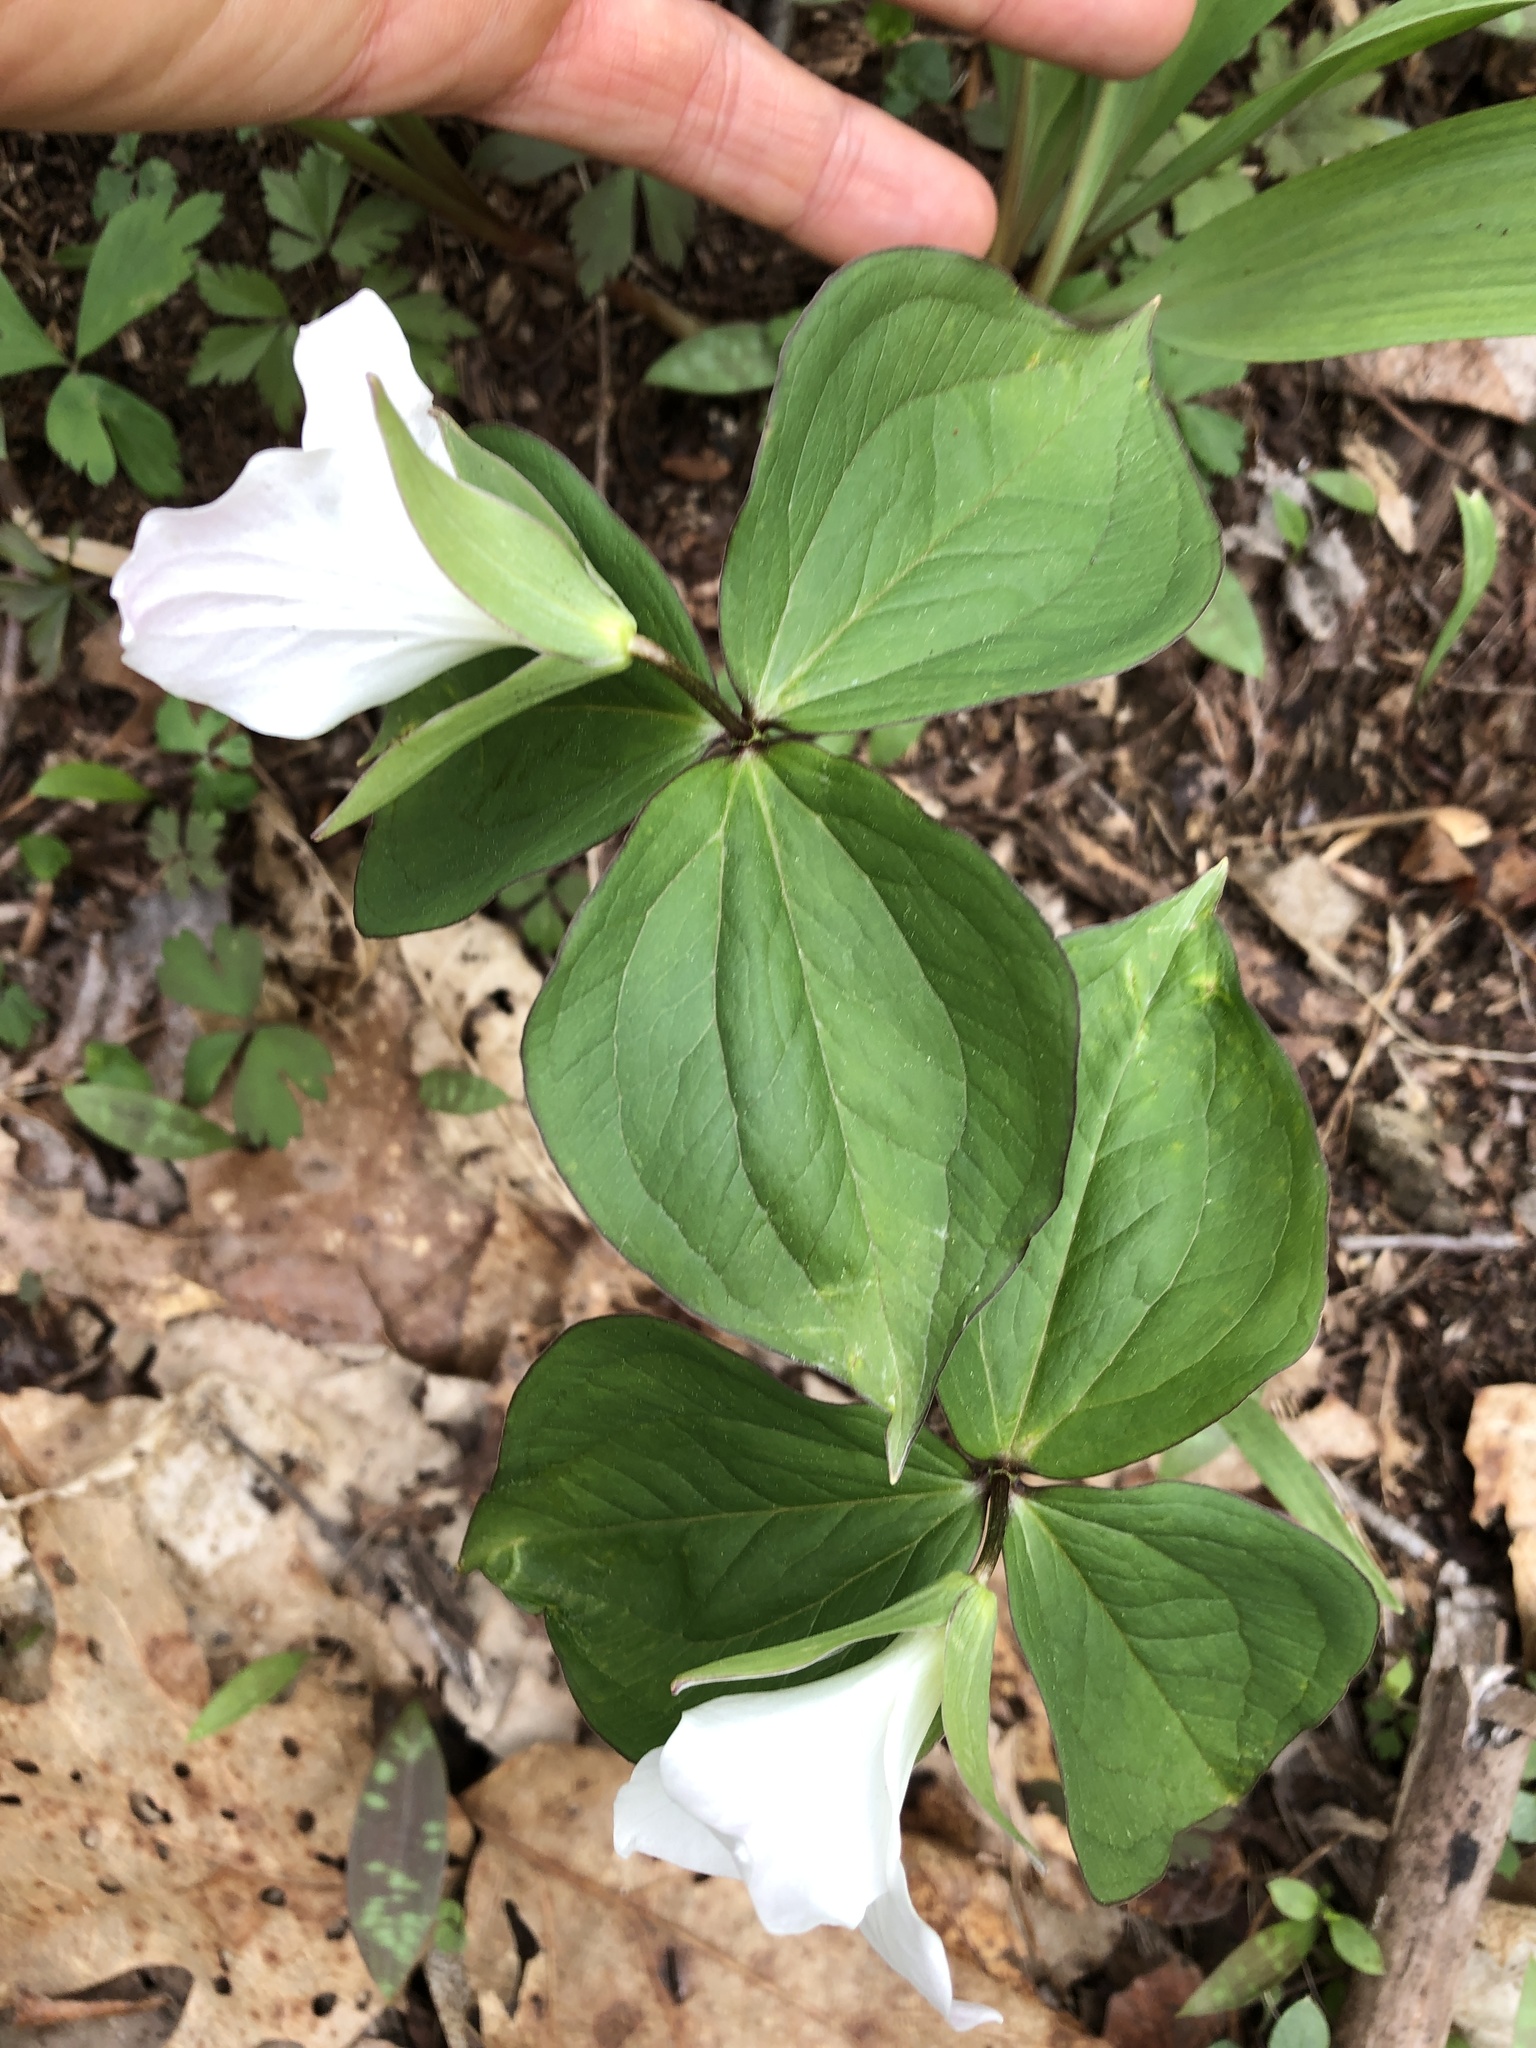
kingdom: Plantae
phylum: Tracheophyta
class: Liliopsida
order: Liliales
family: Melanthiaceae
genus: Trillium
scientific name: Trillium grandiflorum
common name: Great white trillium
